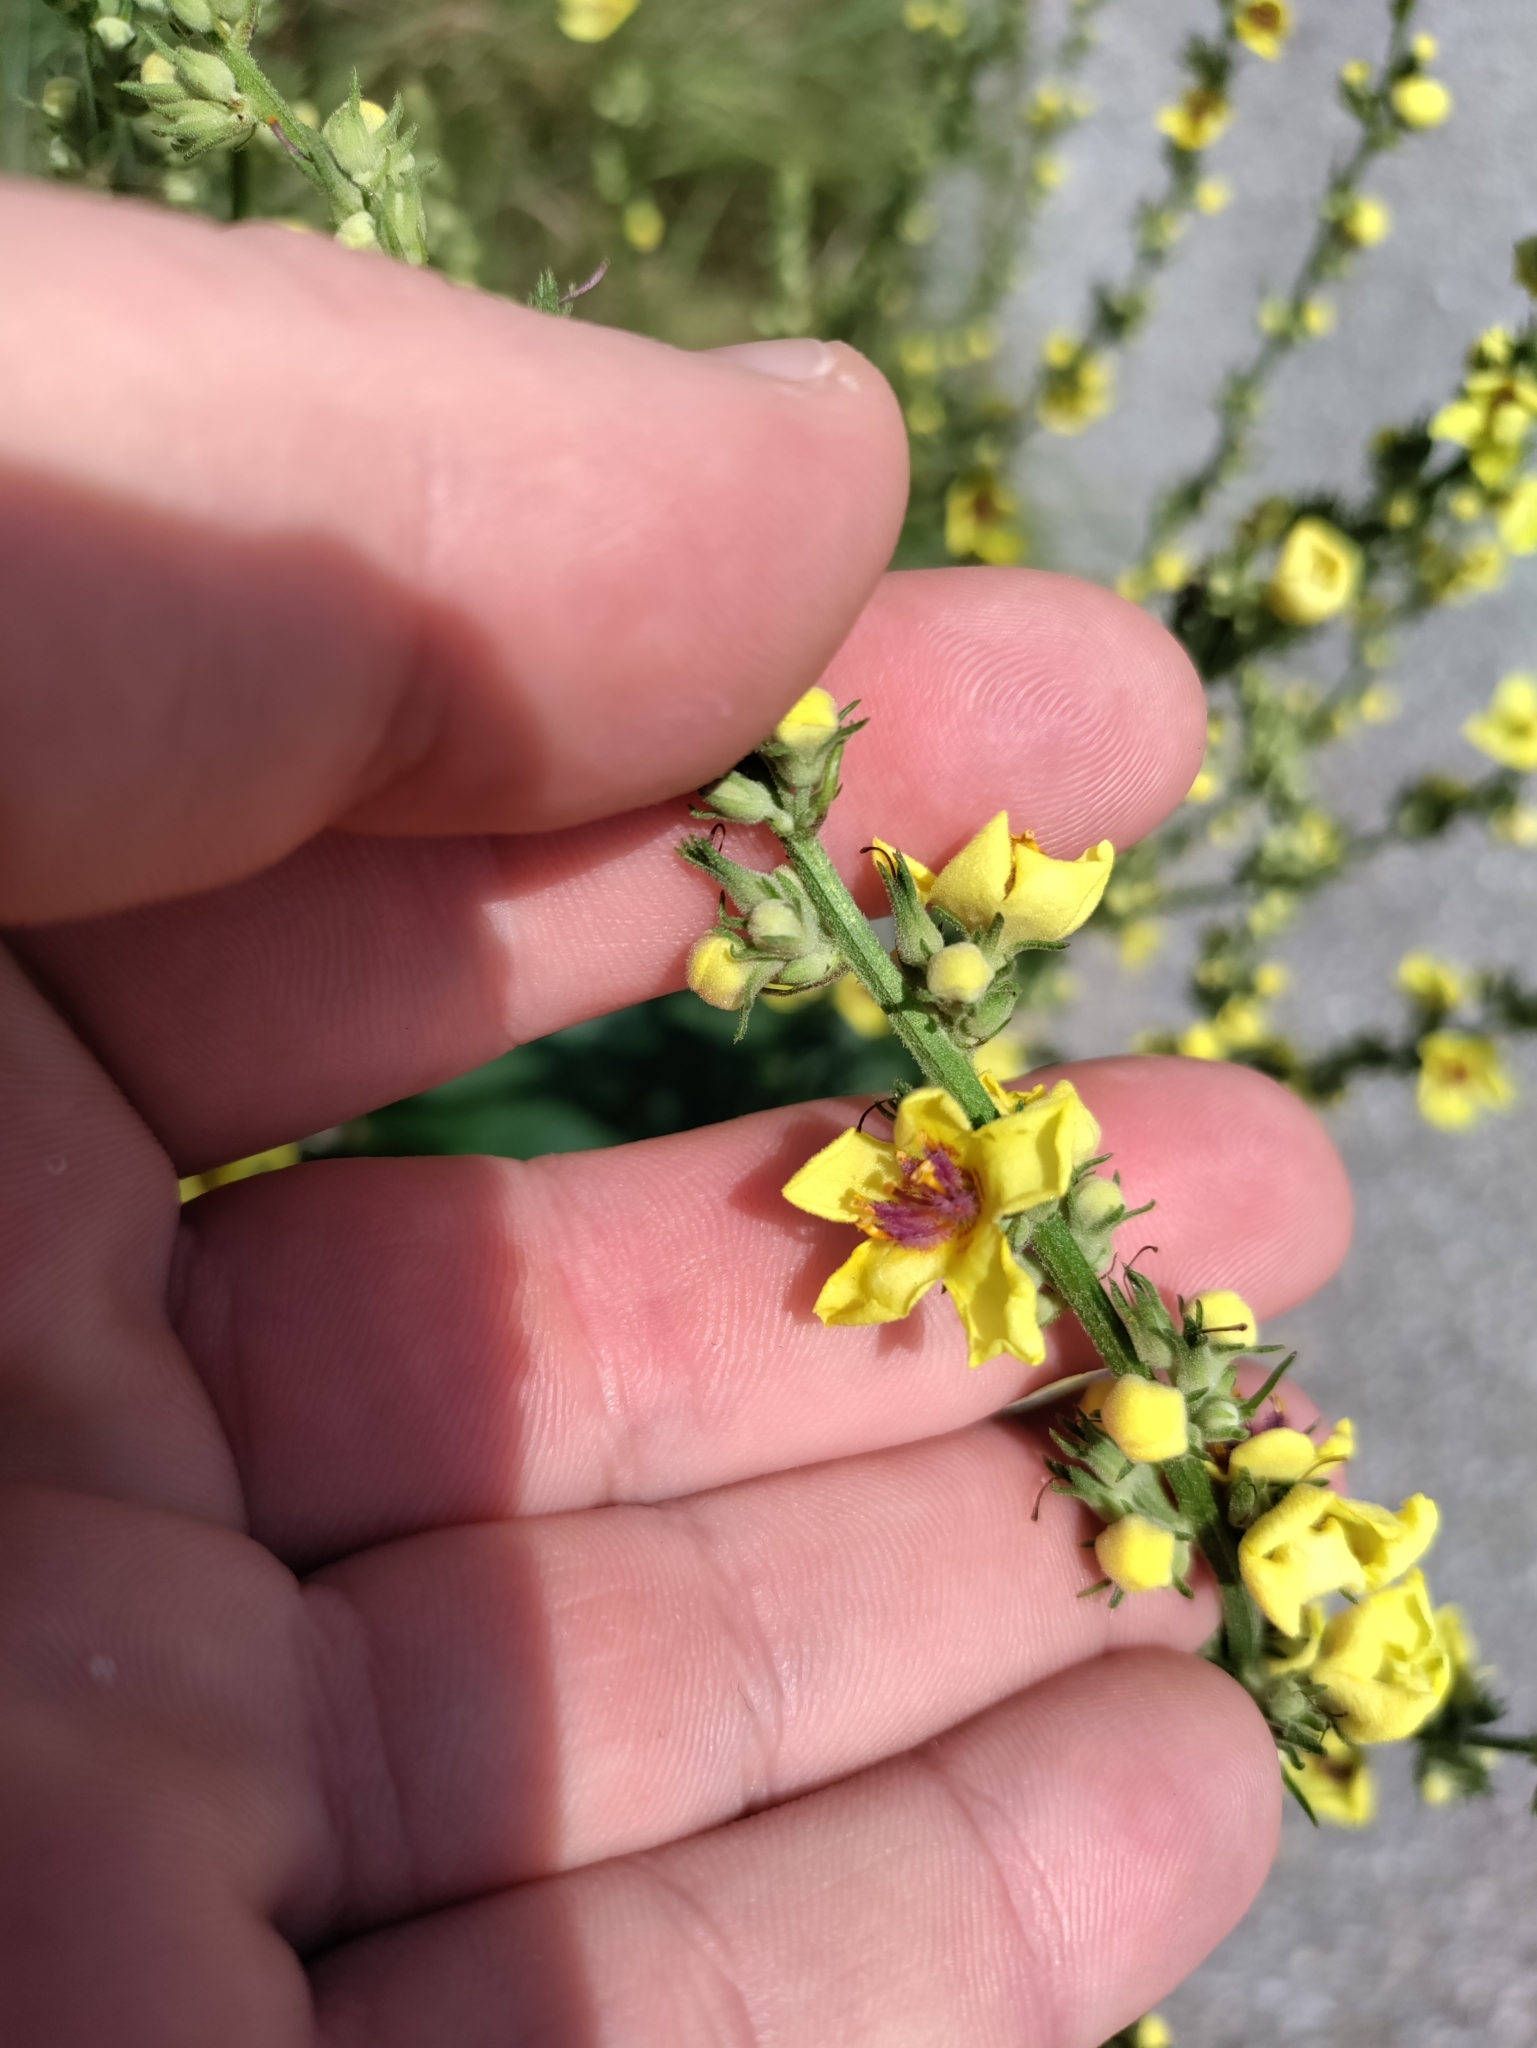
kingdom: Plantae
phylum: Tracheophyta
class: Magnoliopsida
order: Lamiales
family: Scrophulariaceae
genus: Verbascum
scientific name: Verbascum chaixii
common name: Nettle-leaved mullein
